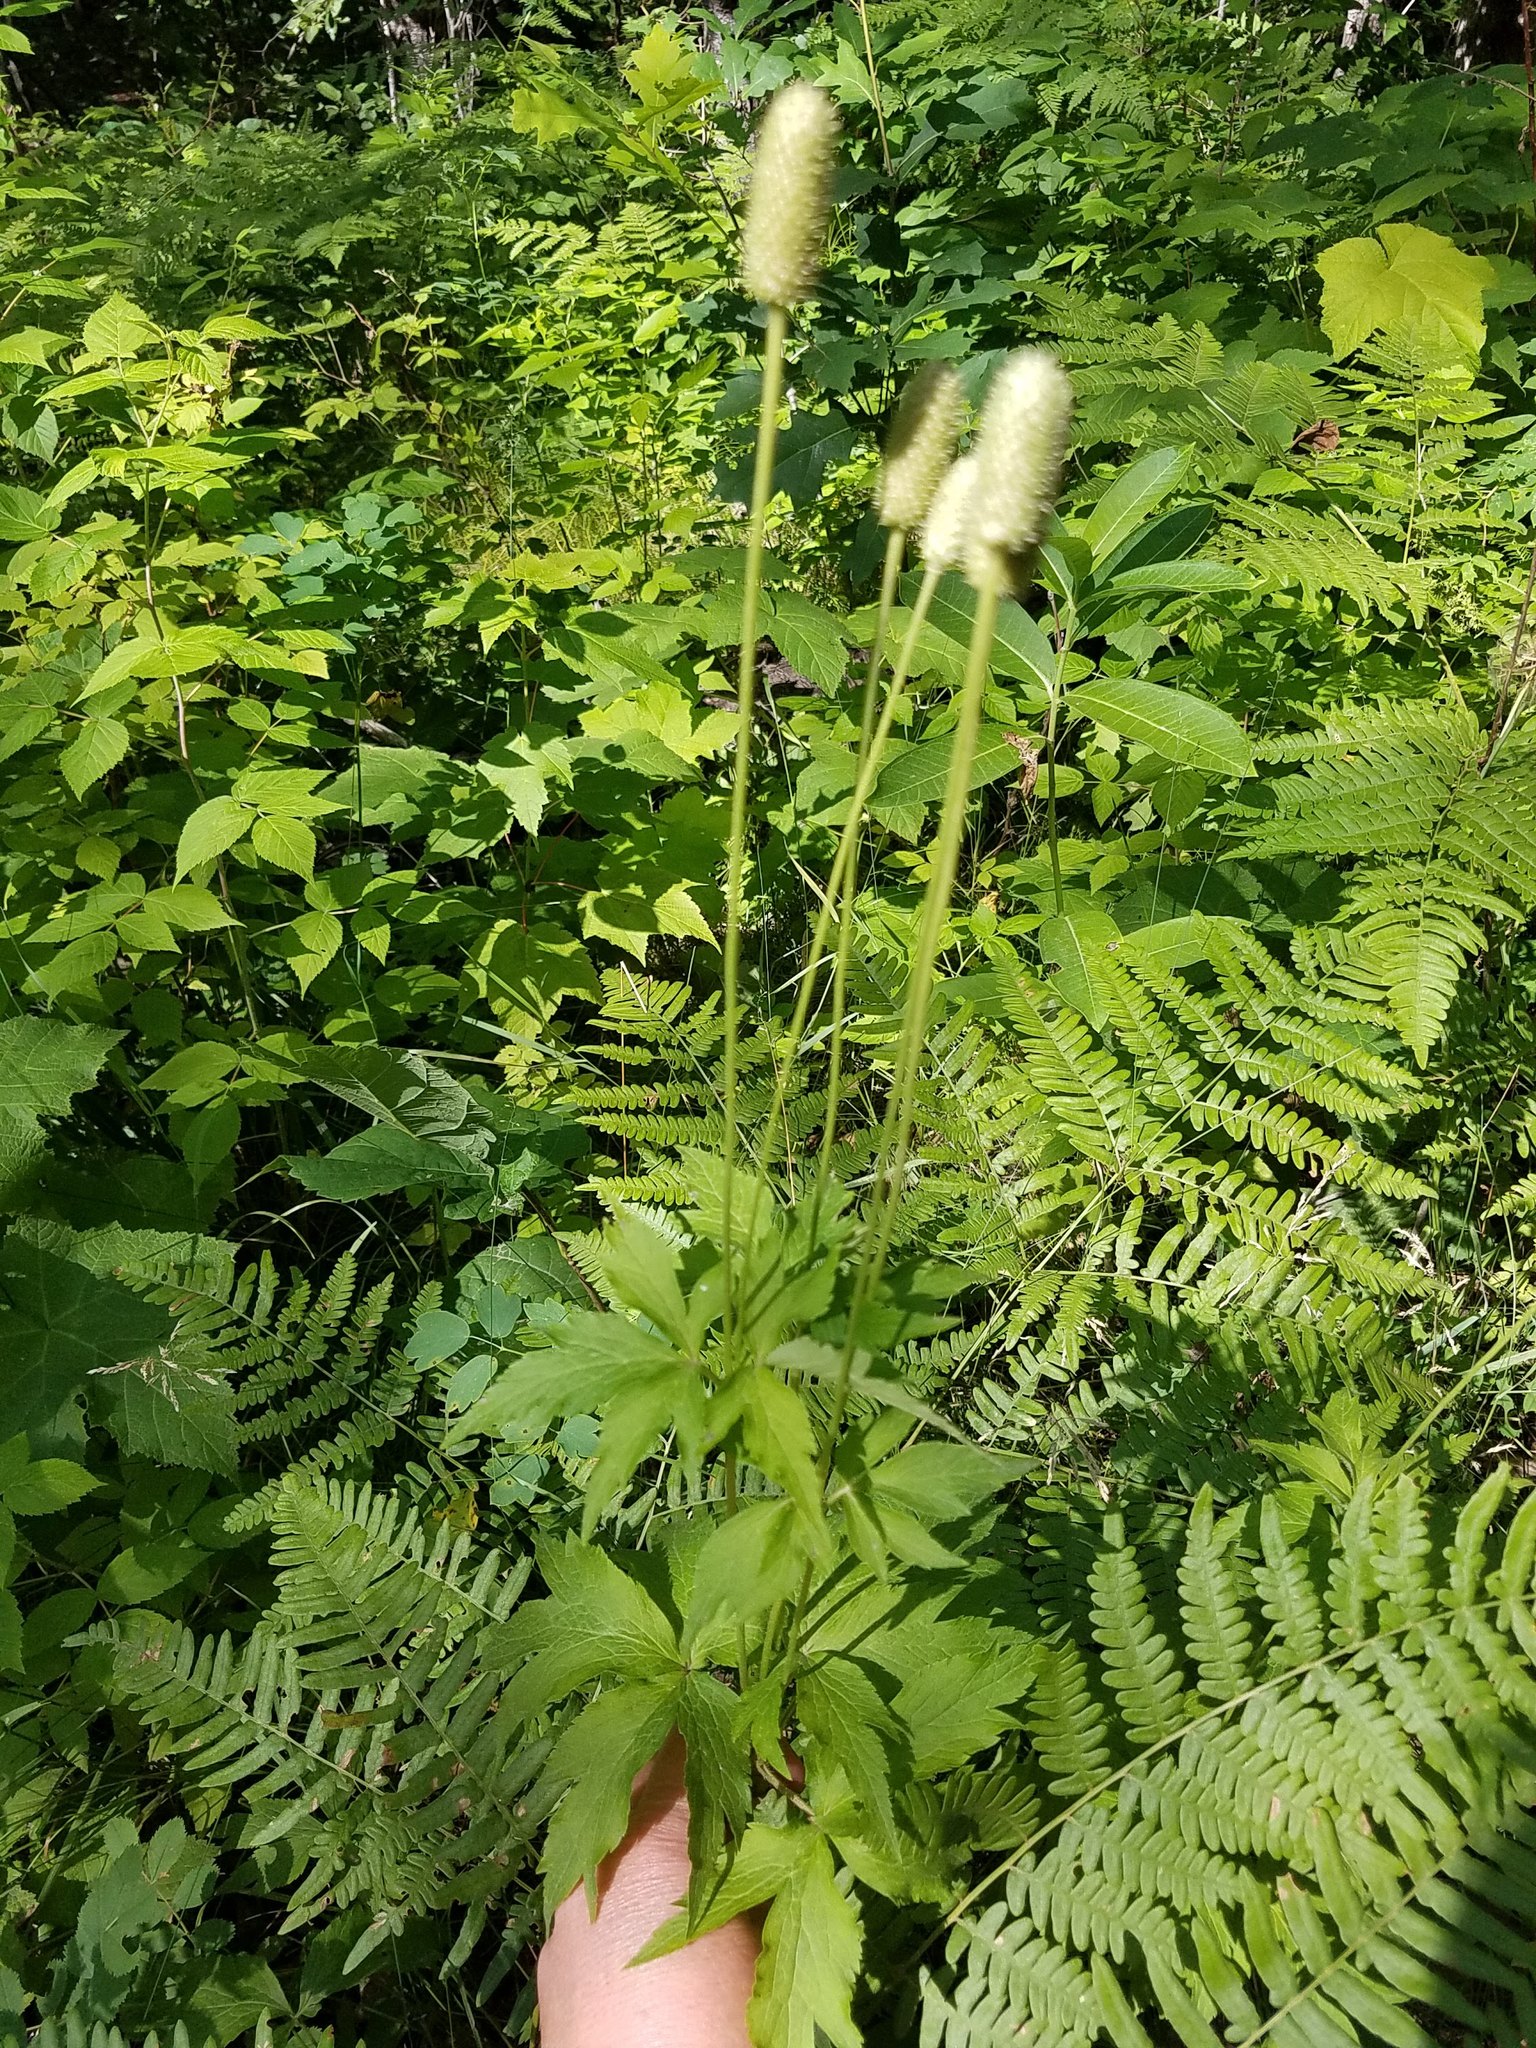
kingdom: Plantae
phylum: Tracheophyta
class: Magnoliopsida
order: Ranunculales
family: Ranunculaceae
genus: Anemone
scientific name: Anemone virginiana
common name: Tall anemone
